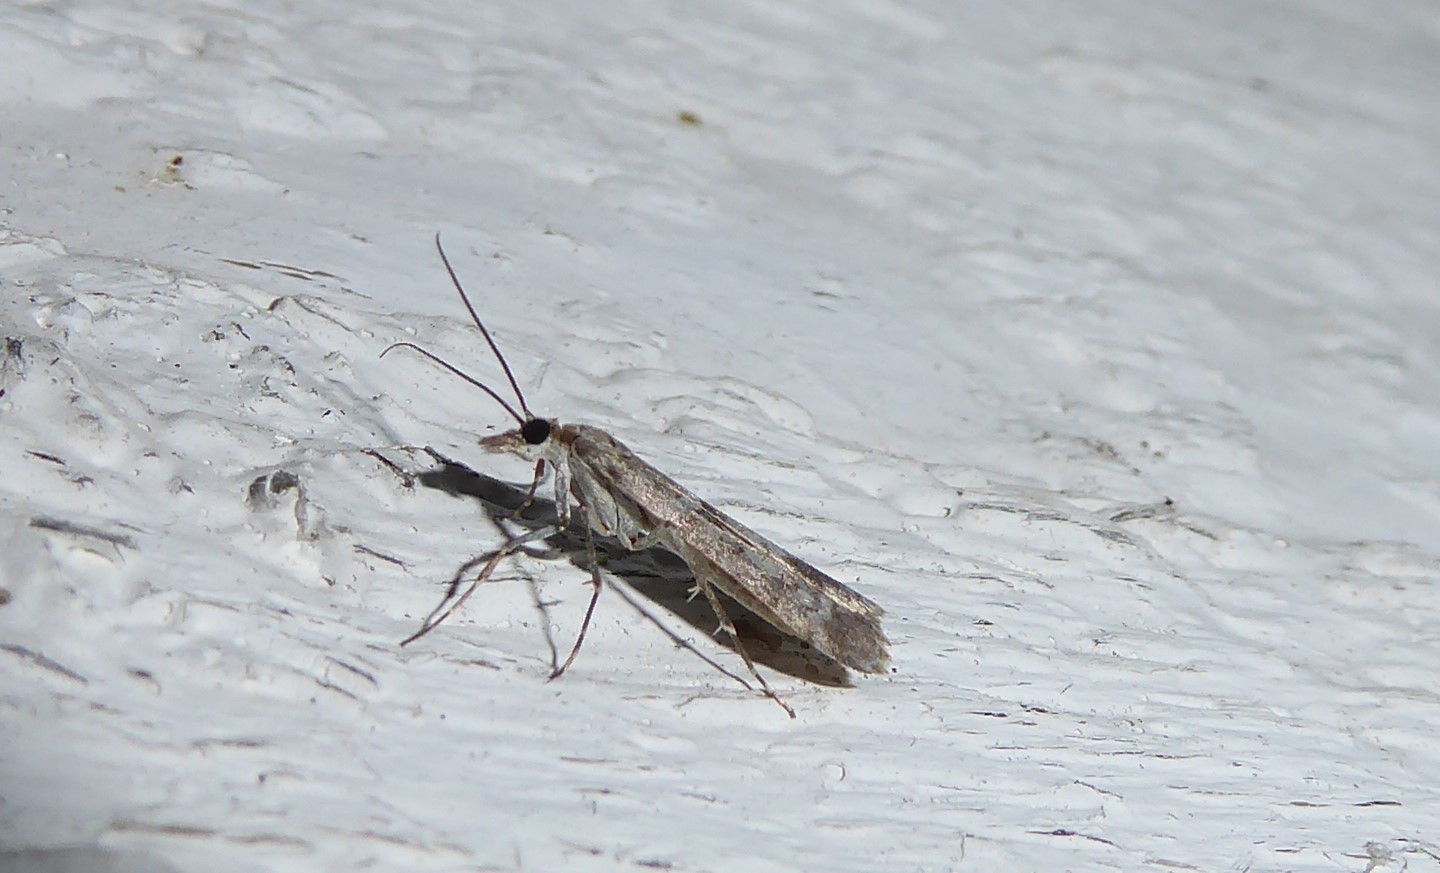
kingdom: Animalia
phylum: Arthropoda
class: Insecta
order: Lepidoptera
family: Crambidae
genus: Eudonia
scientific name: Eudonia leptalea
